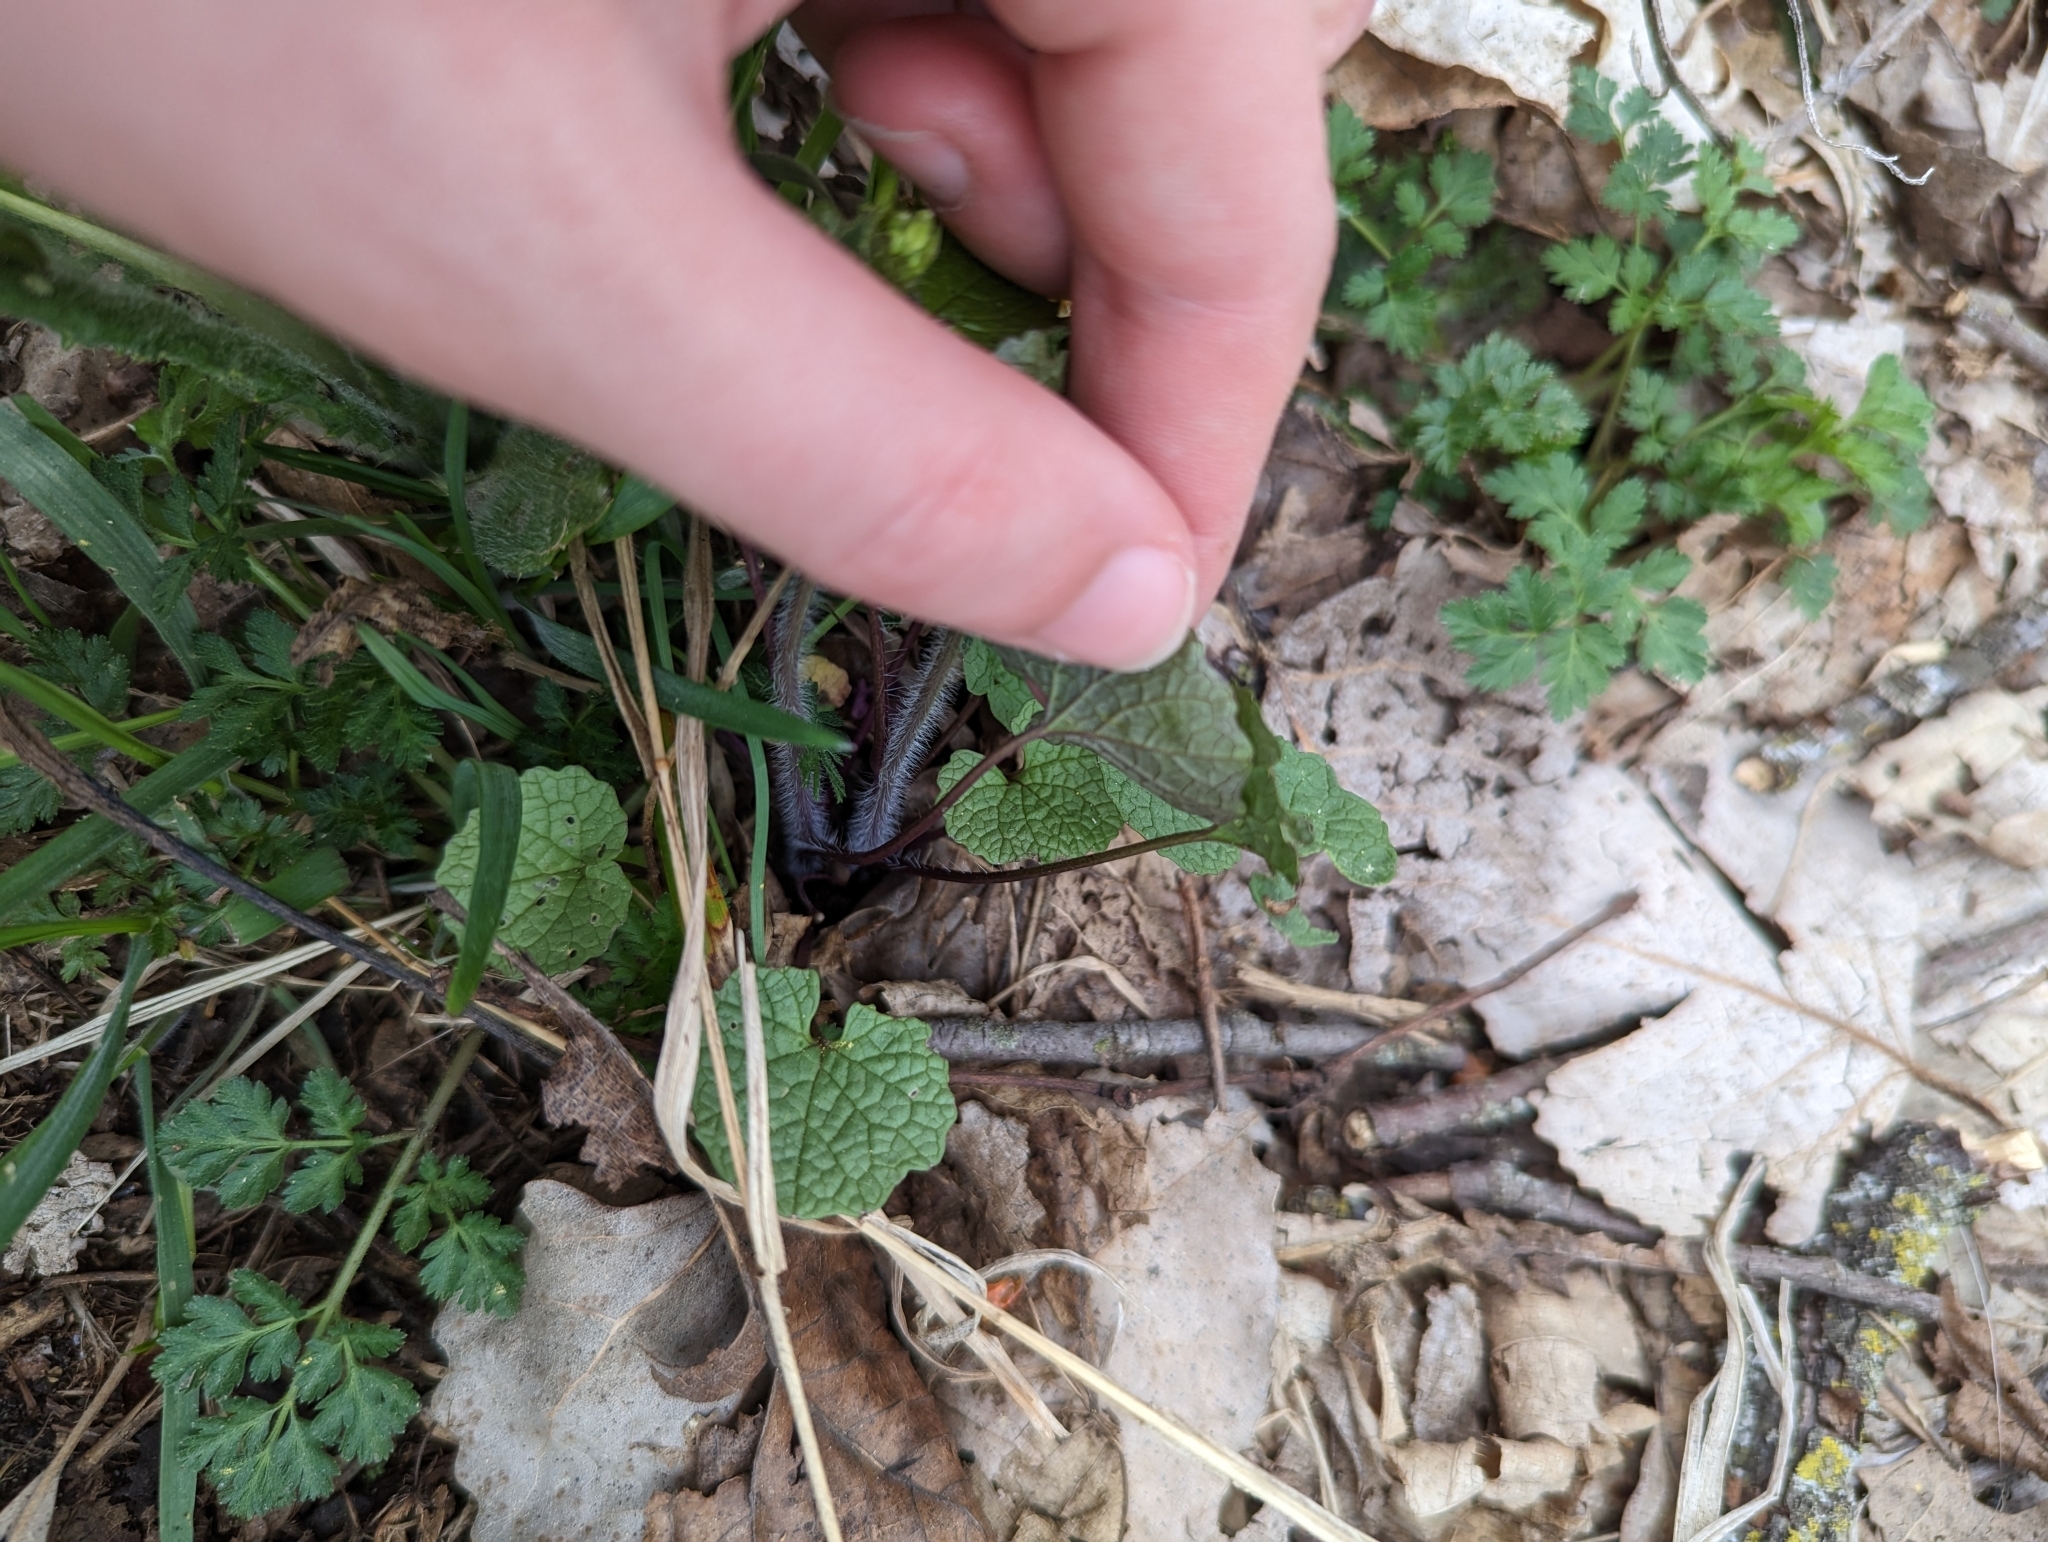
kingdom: Plantae
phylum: Tracheophyta
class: Magnoliopsida
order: Brassicales
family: Brassicaceae
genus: Alliaria
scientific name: Alliaria petiolata
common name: Garlic mustard
